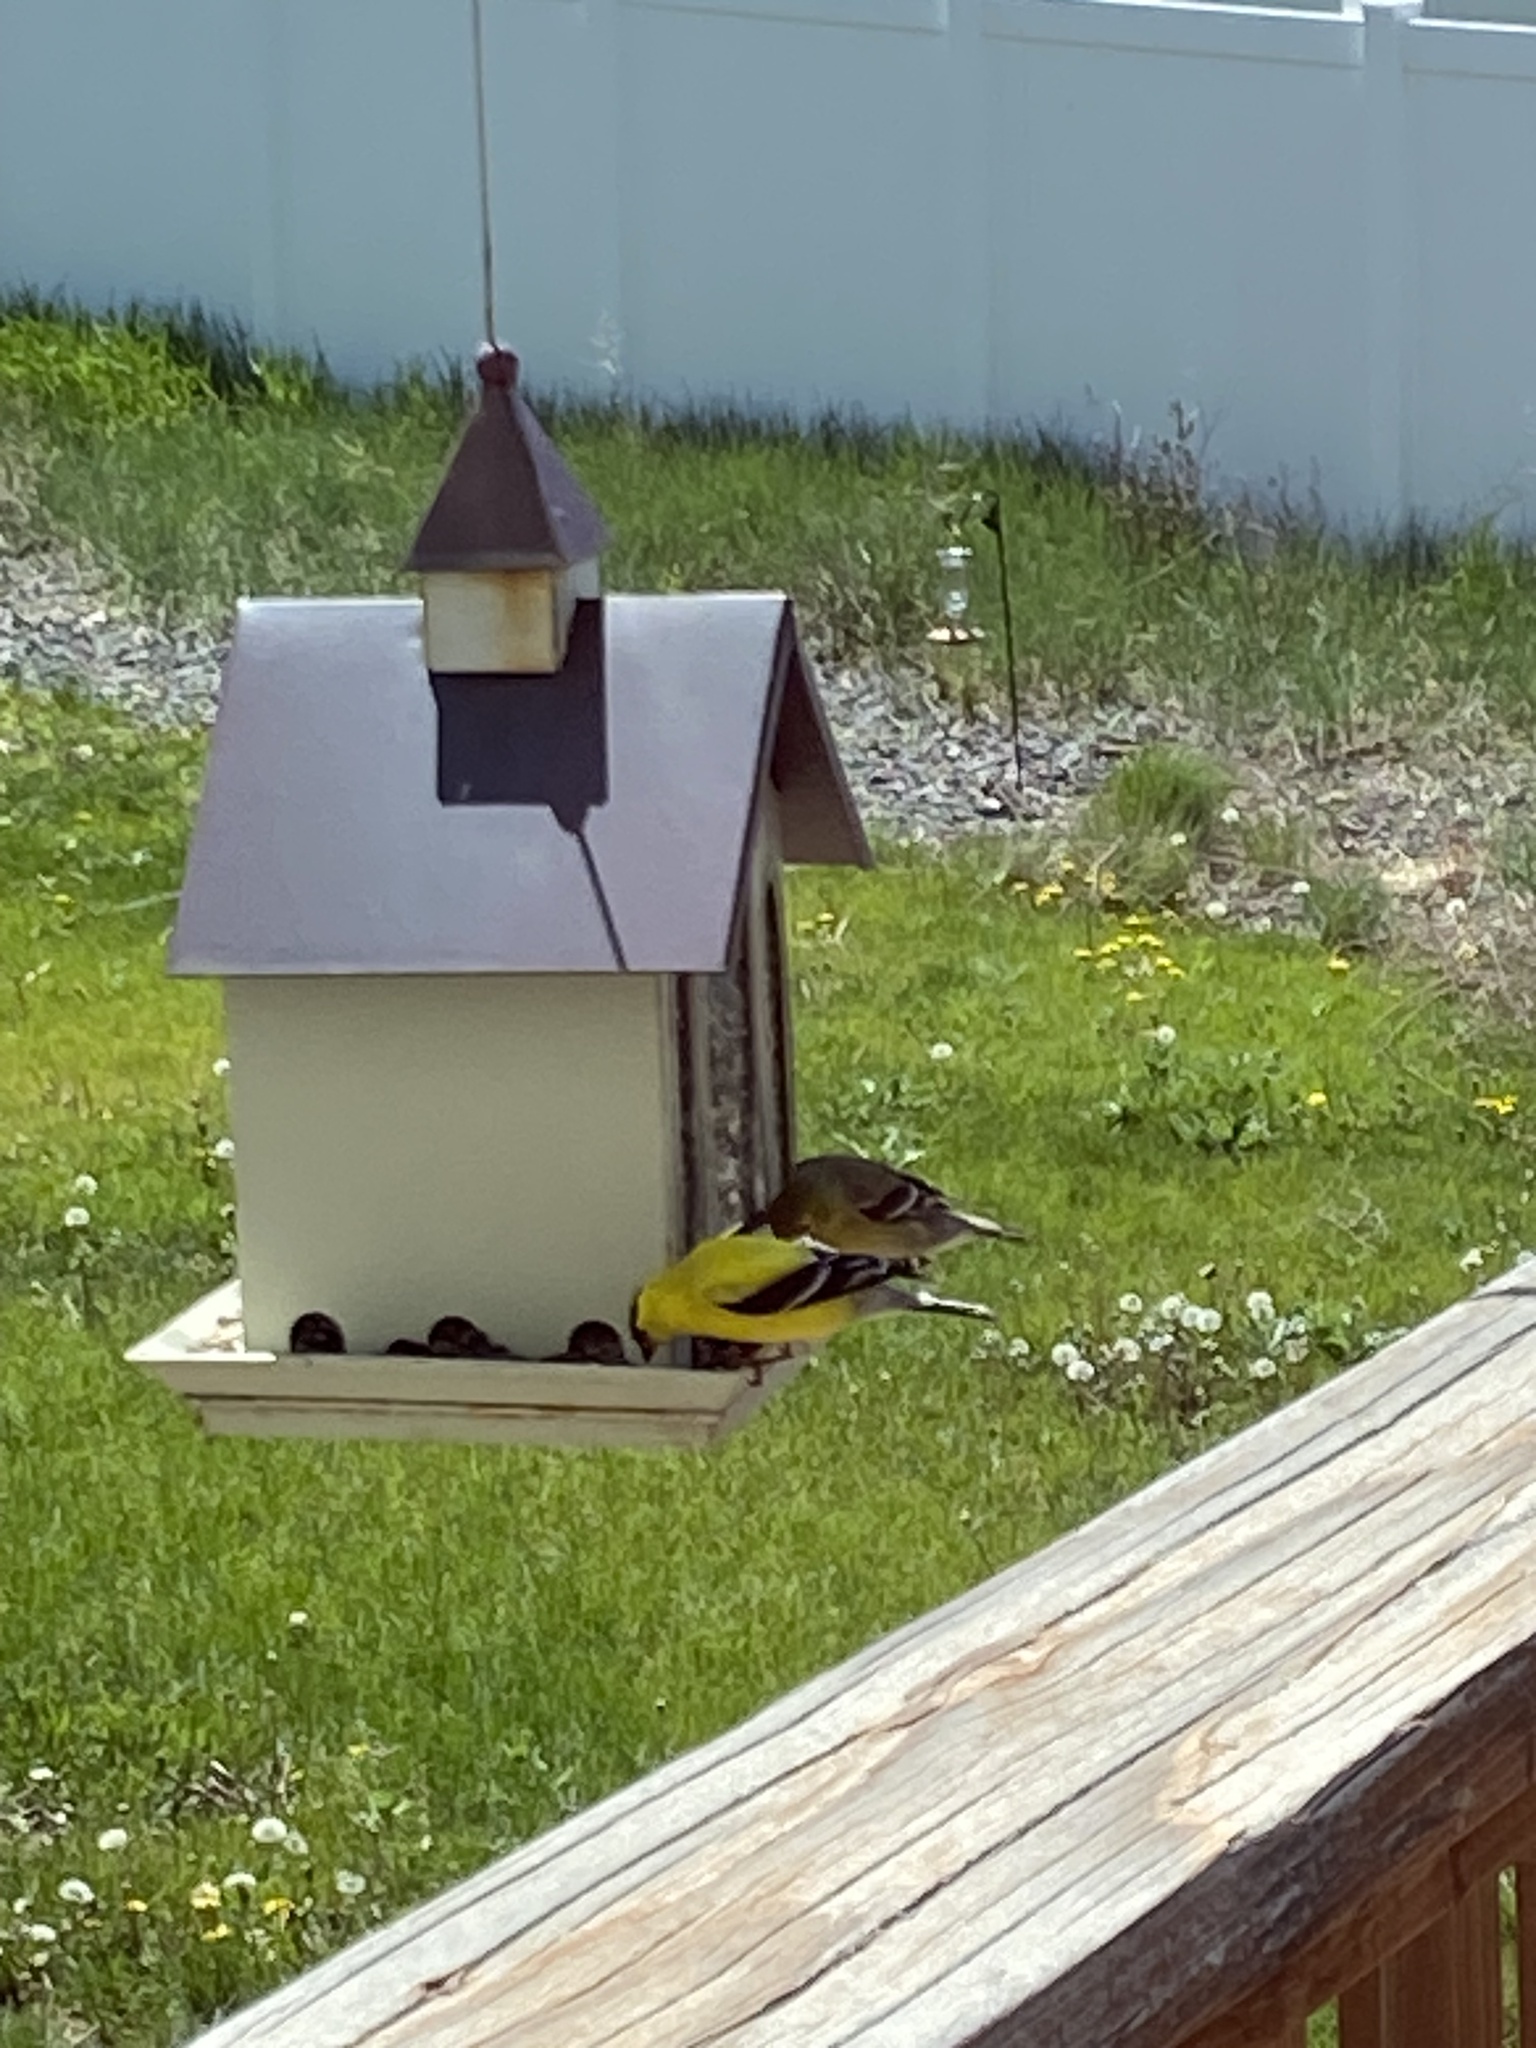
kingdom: Animalia
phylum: Chordata
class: Aves
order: Passeriformes
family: Fringillidae
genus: Spinus
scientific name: Spinus tristis
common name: American goldfinch
